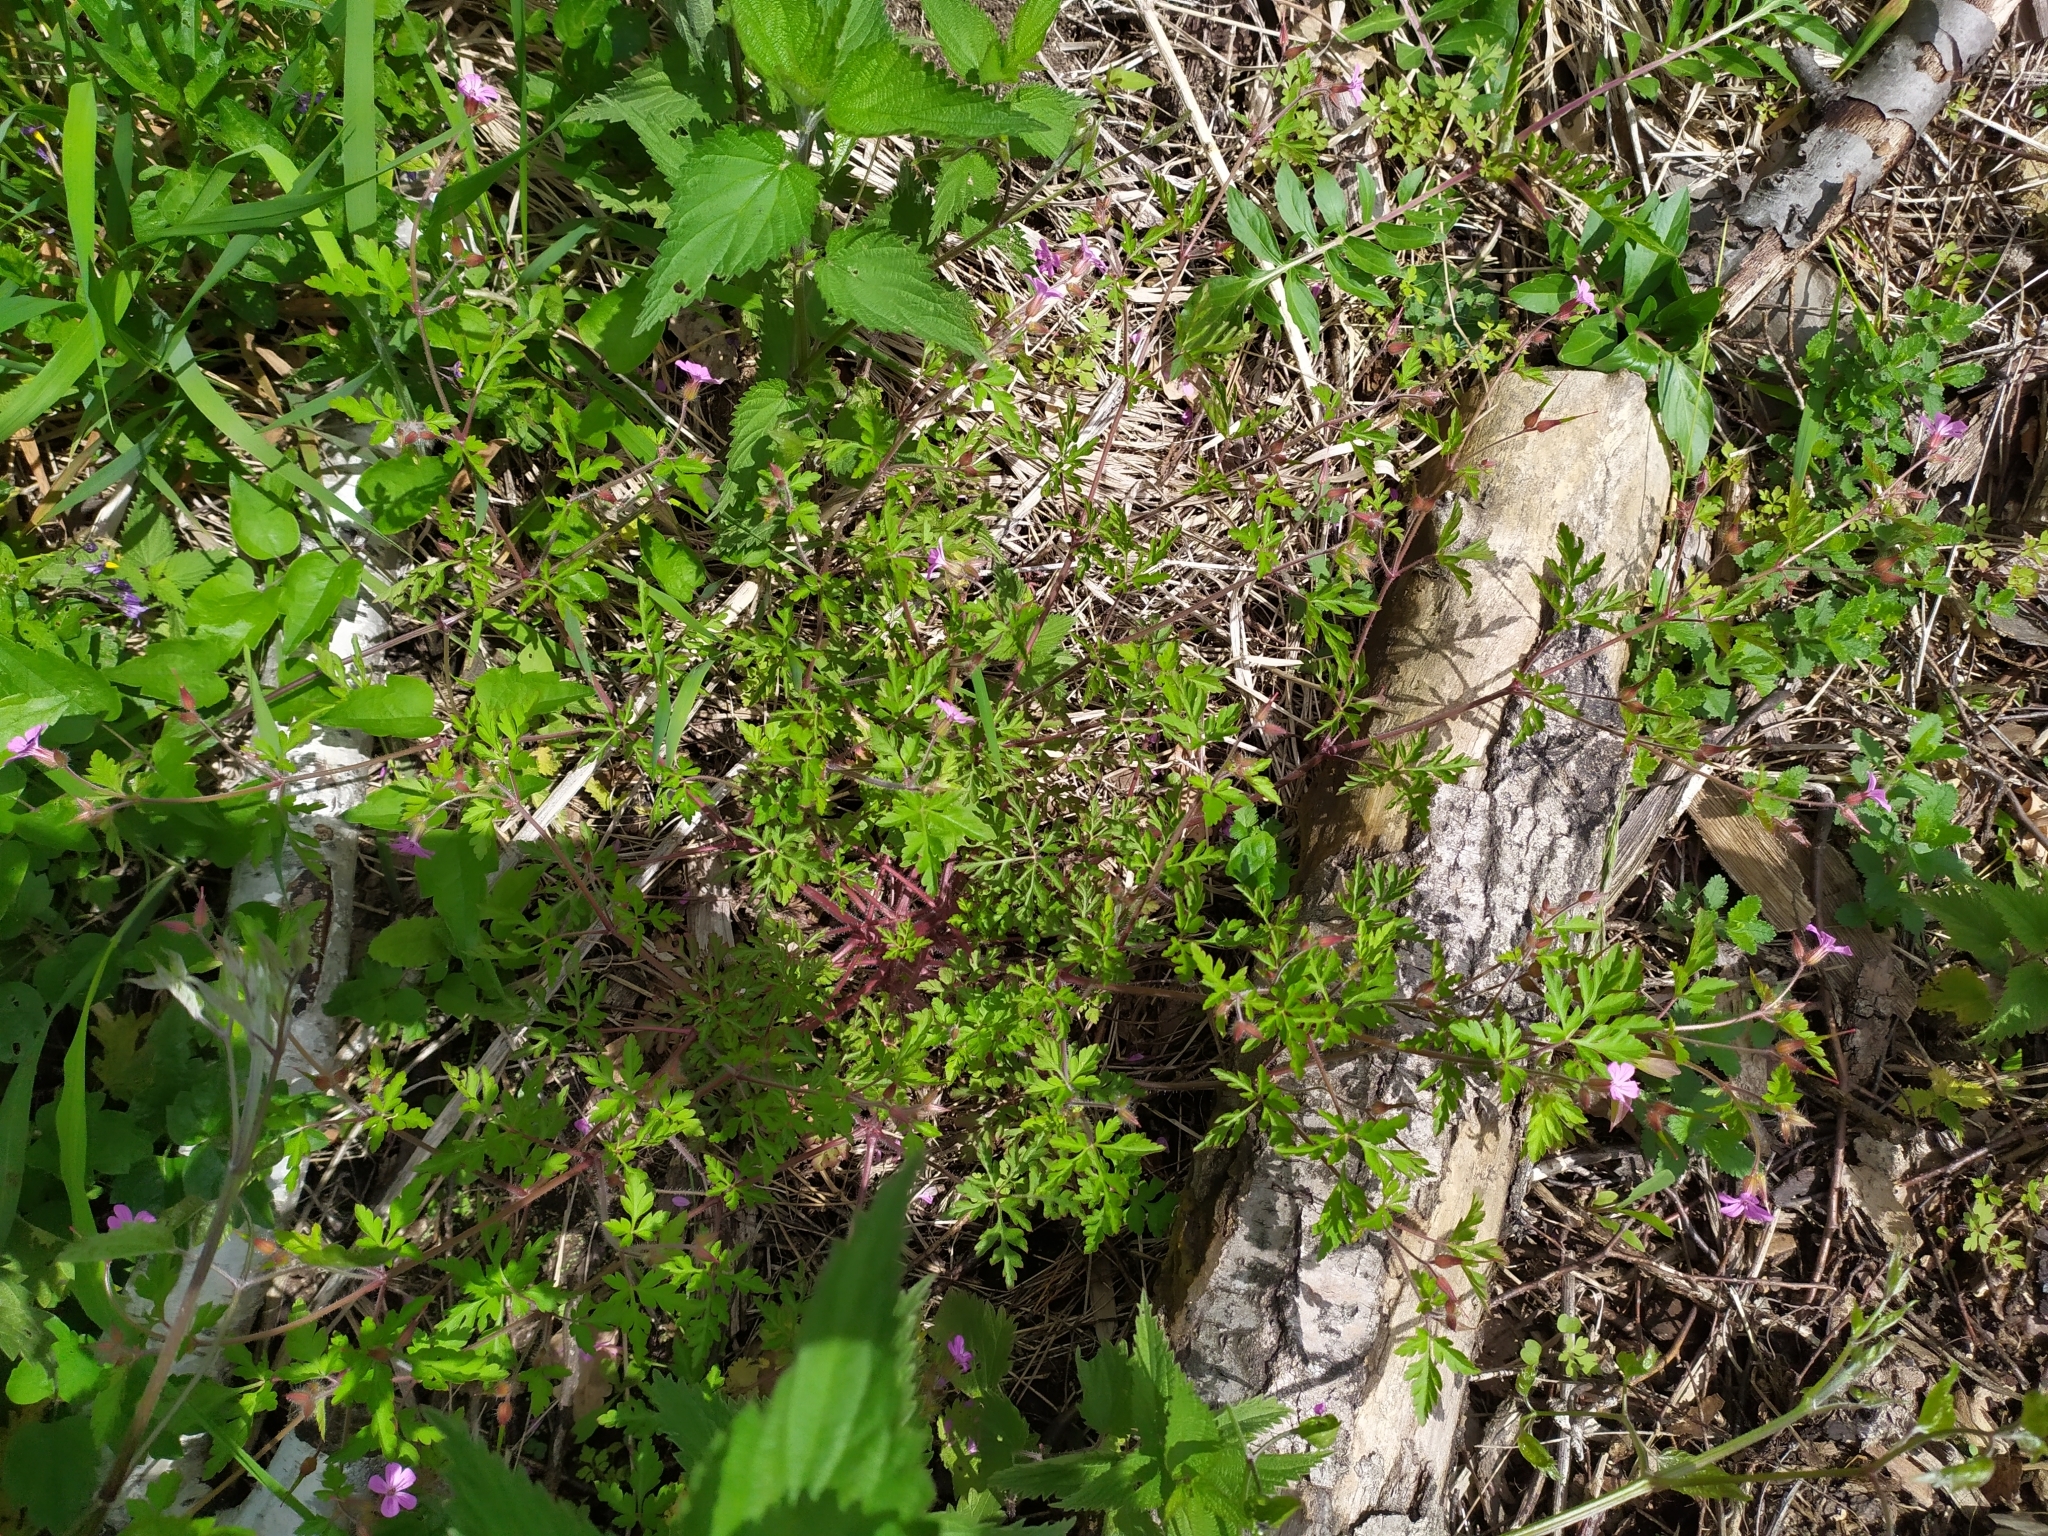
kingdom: Plantae
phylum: Tracheophyta
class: Magnoliopsida
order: Geraniales
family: Geraniaceae
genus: Geranium
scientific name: Geranium robertianum
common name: Herb-robert
